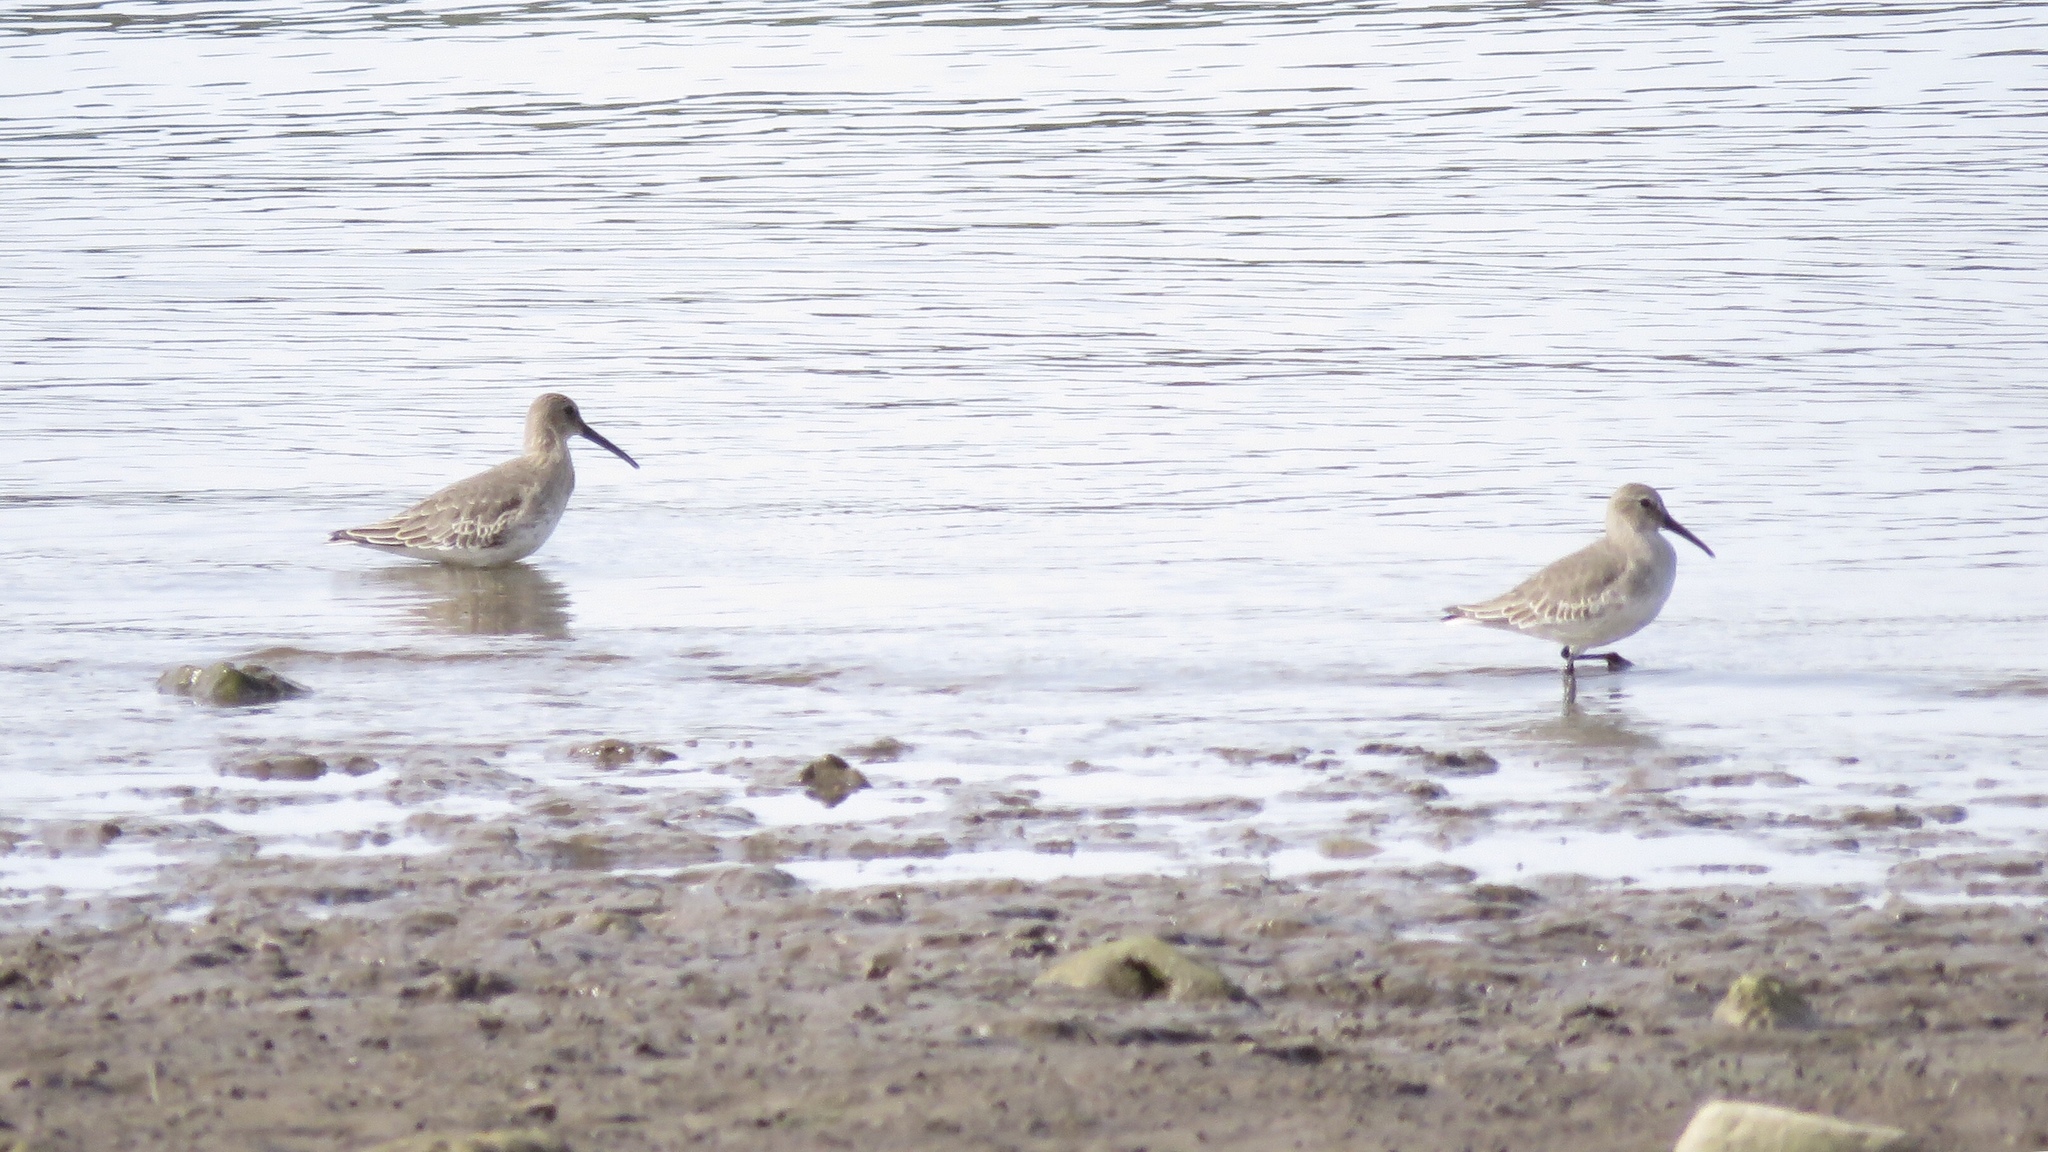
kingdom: Animalia
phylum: Chordata
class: Aves
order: Charadriiformes
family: Scolopacidae
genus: Calidris
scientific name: Calidris alpina
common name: Dunlin
